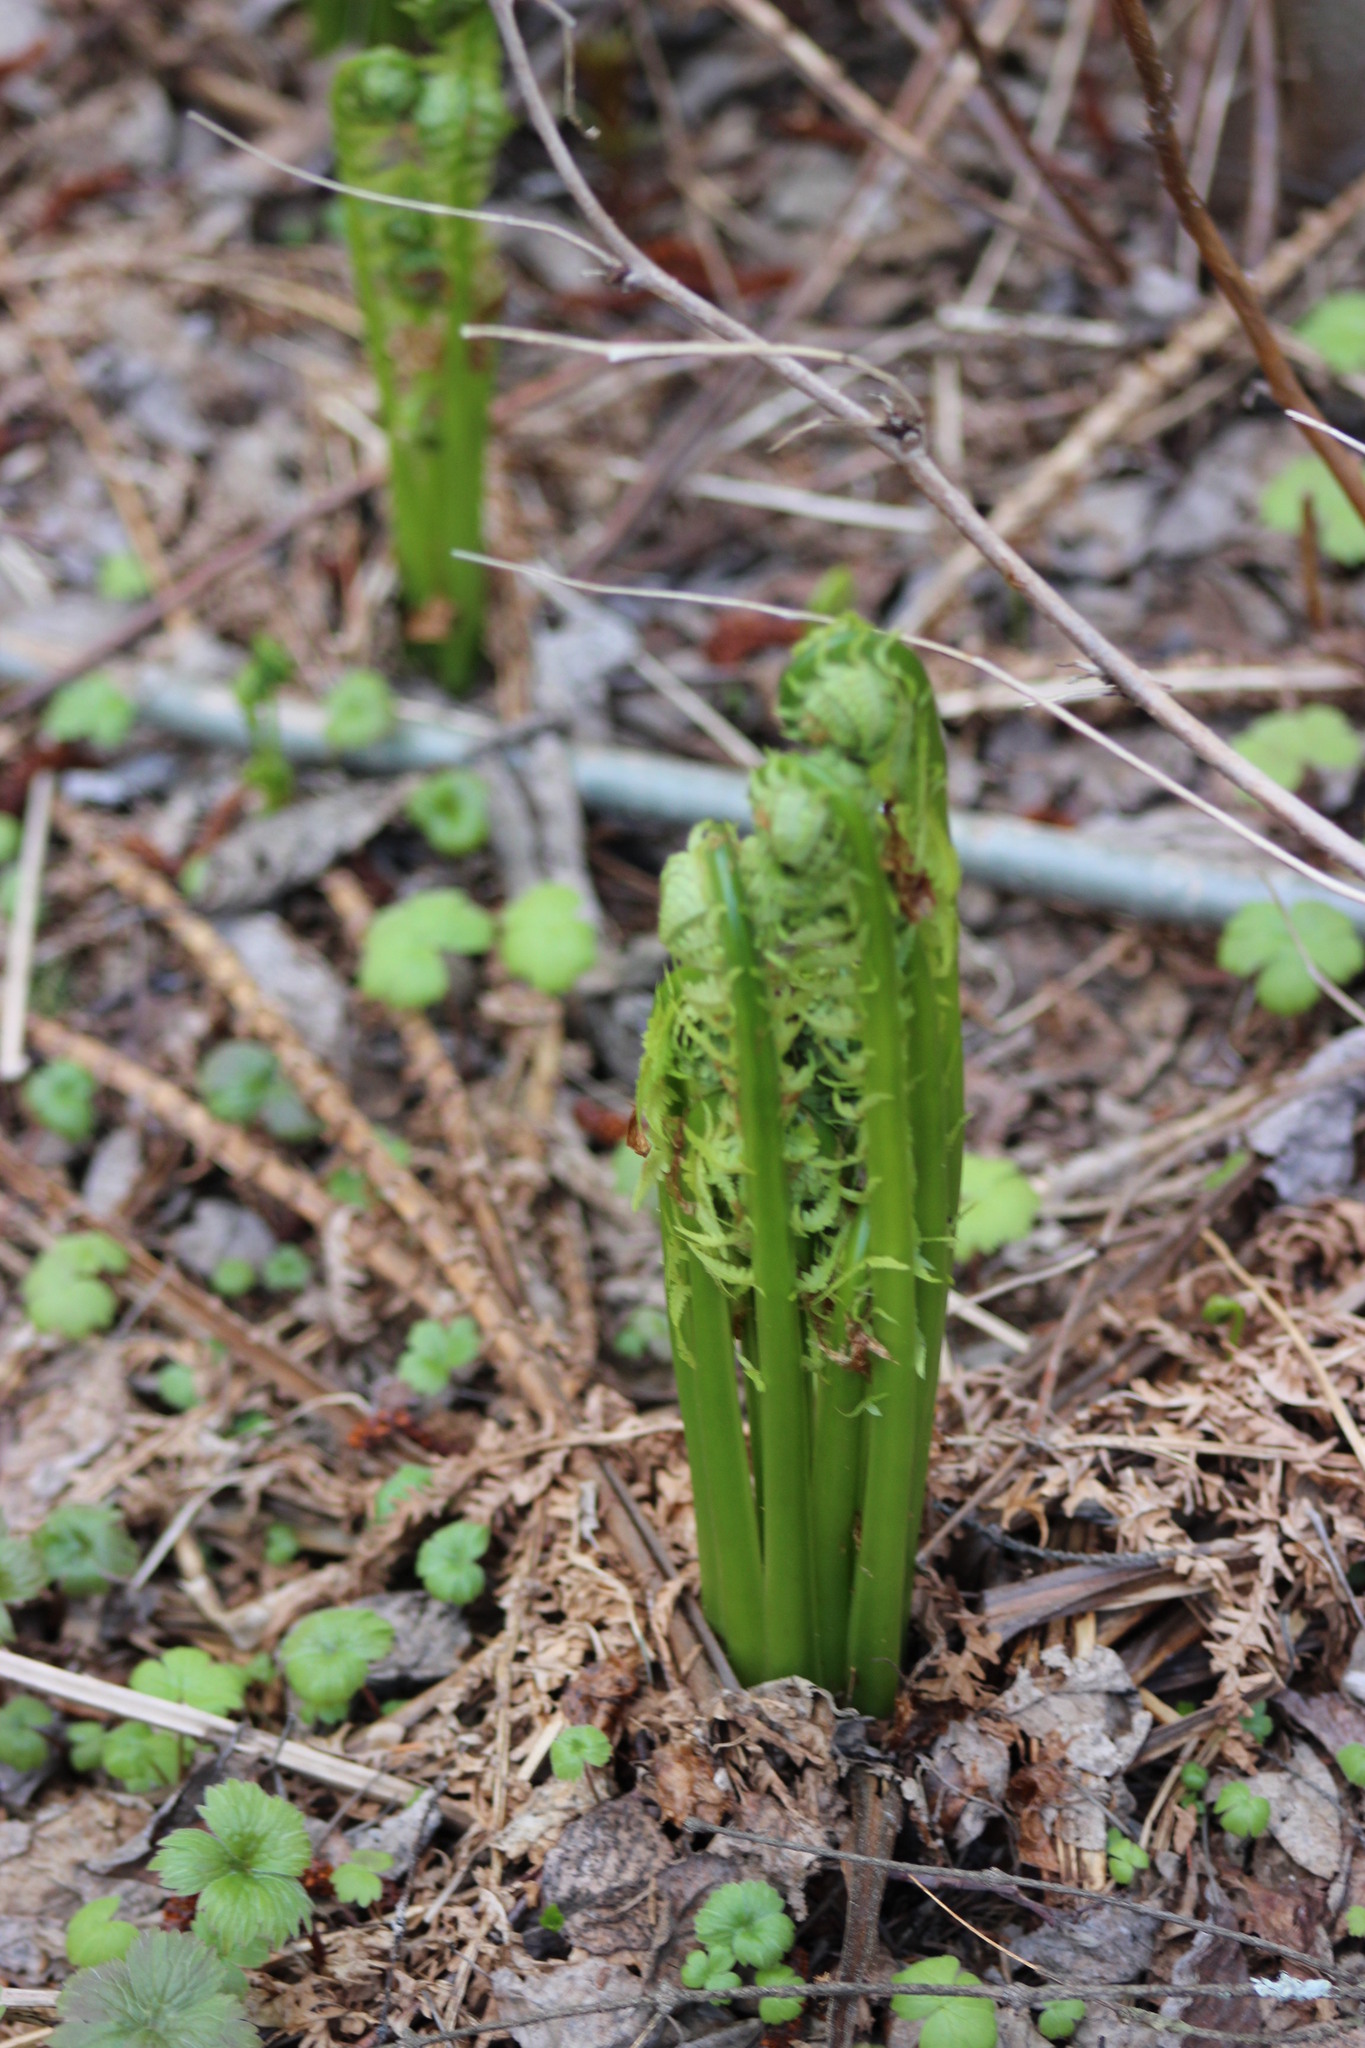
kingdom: Plantae
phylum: Tracheophyta
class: Polypodiopsida
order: Polypodiales
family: Onocleaceae
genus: Matteuccia
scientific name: Matteuccia struthiopteris
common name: Ostrich fern
